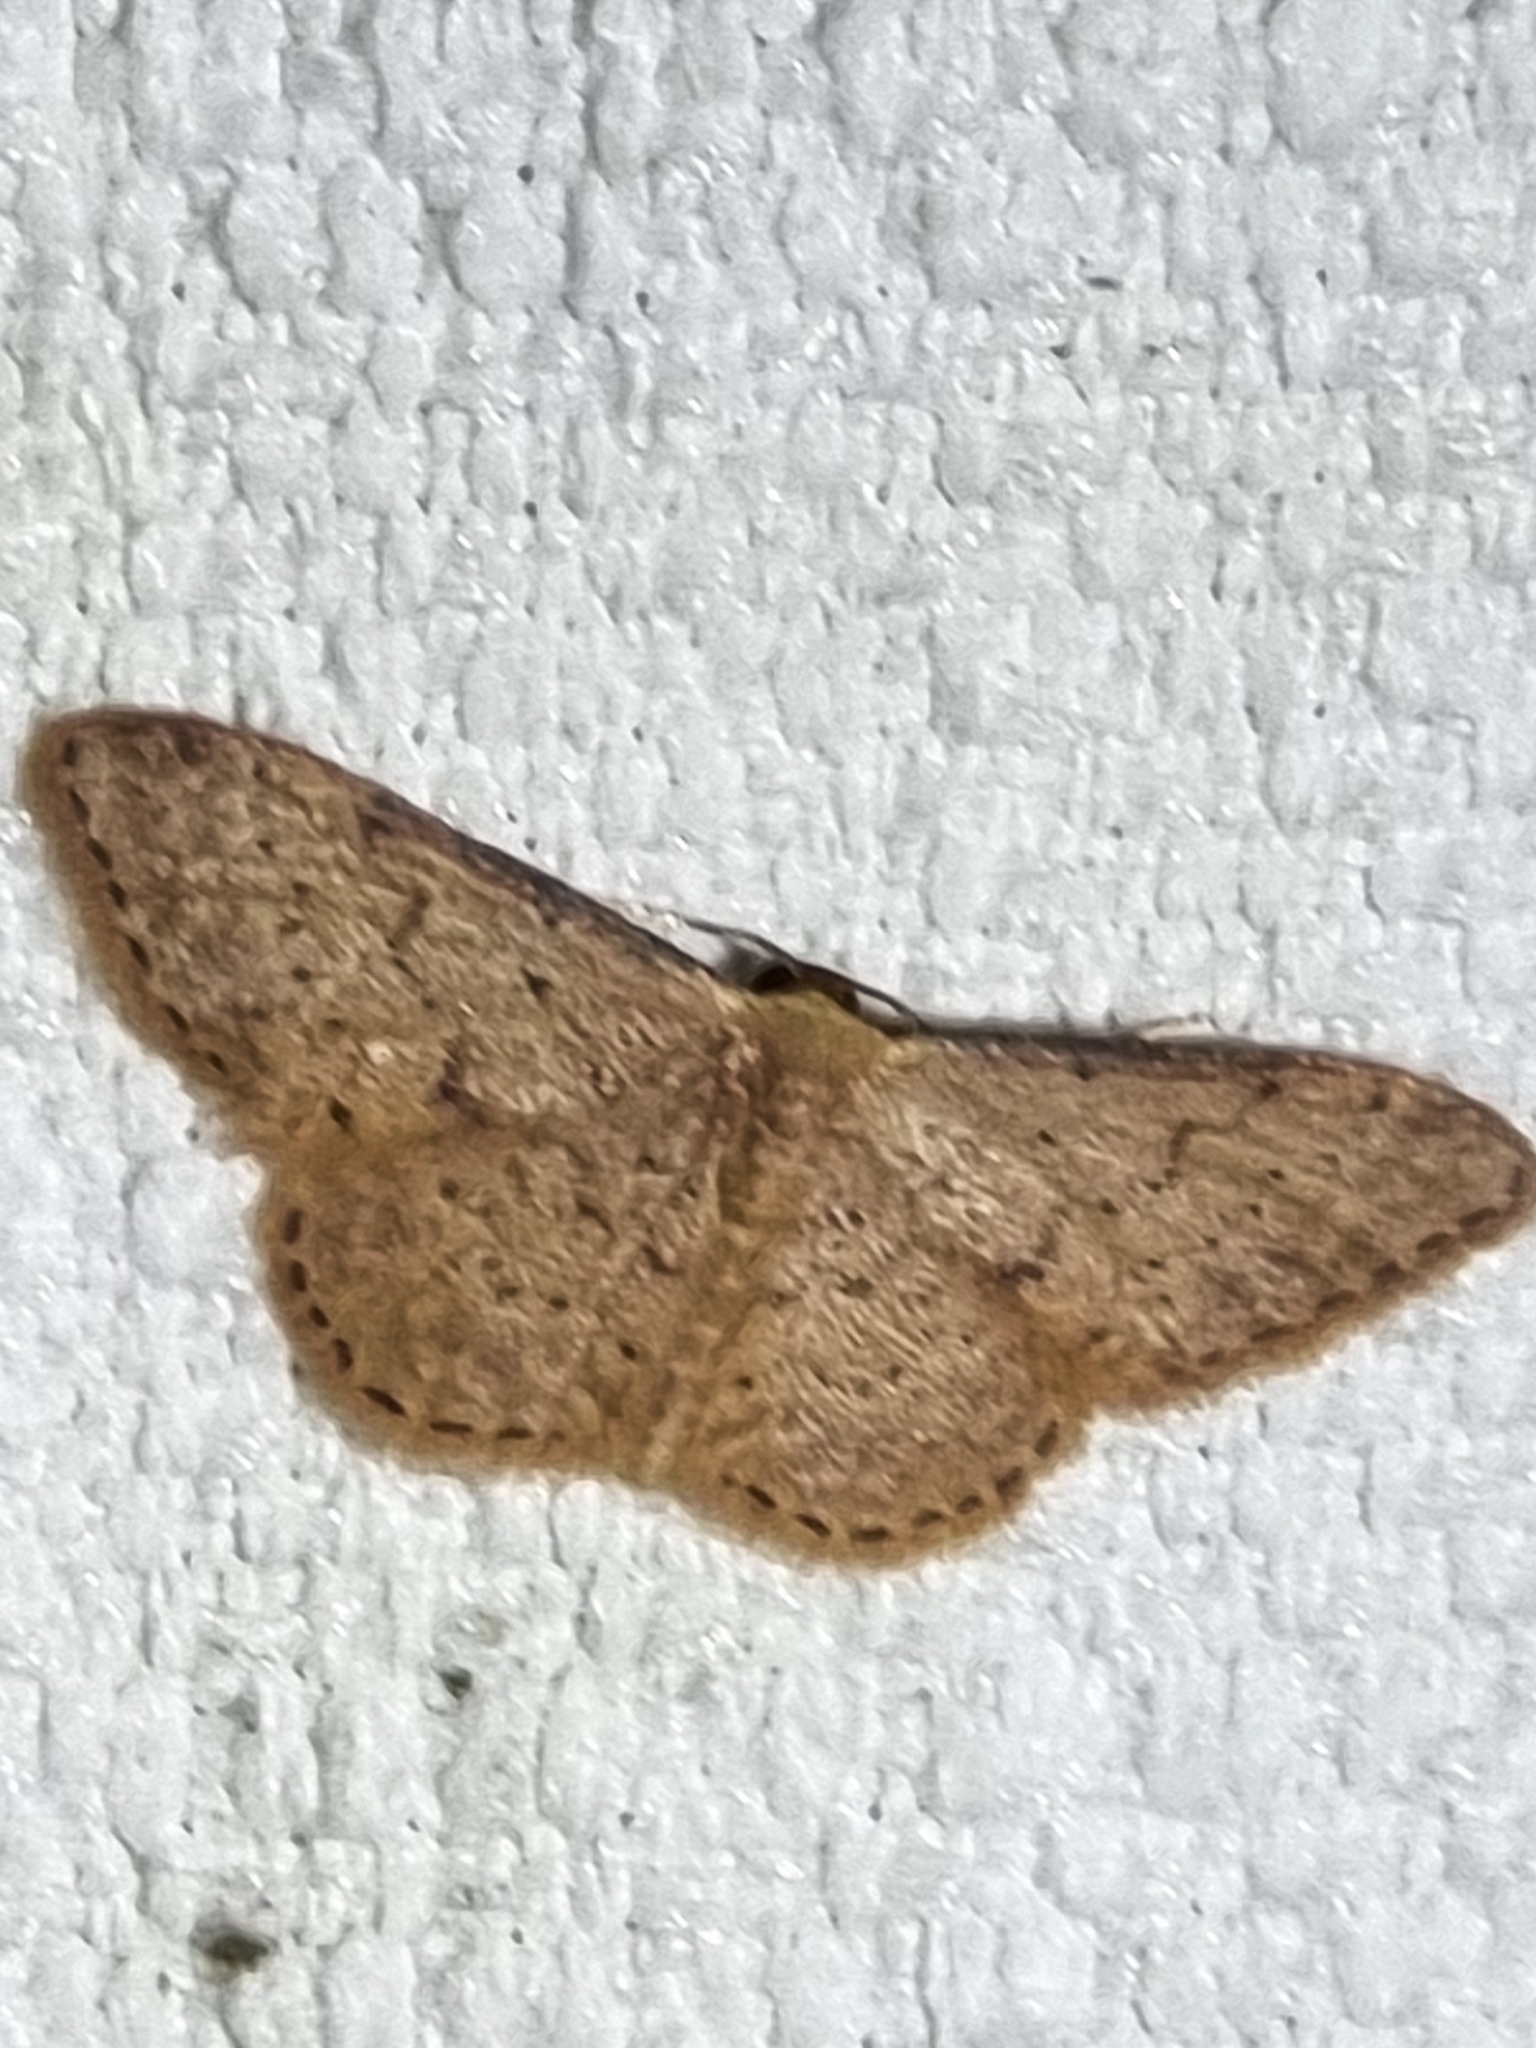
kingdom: Animalia
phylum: Arthropoda
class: Insecta
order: Lepidoptera
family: Geometridae
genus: Idaea
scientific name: Idaea trissorma
